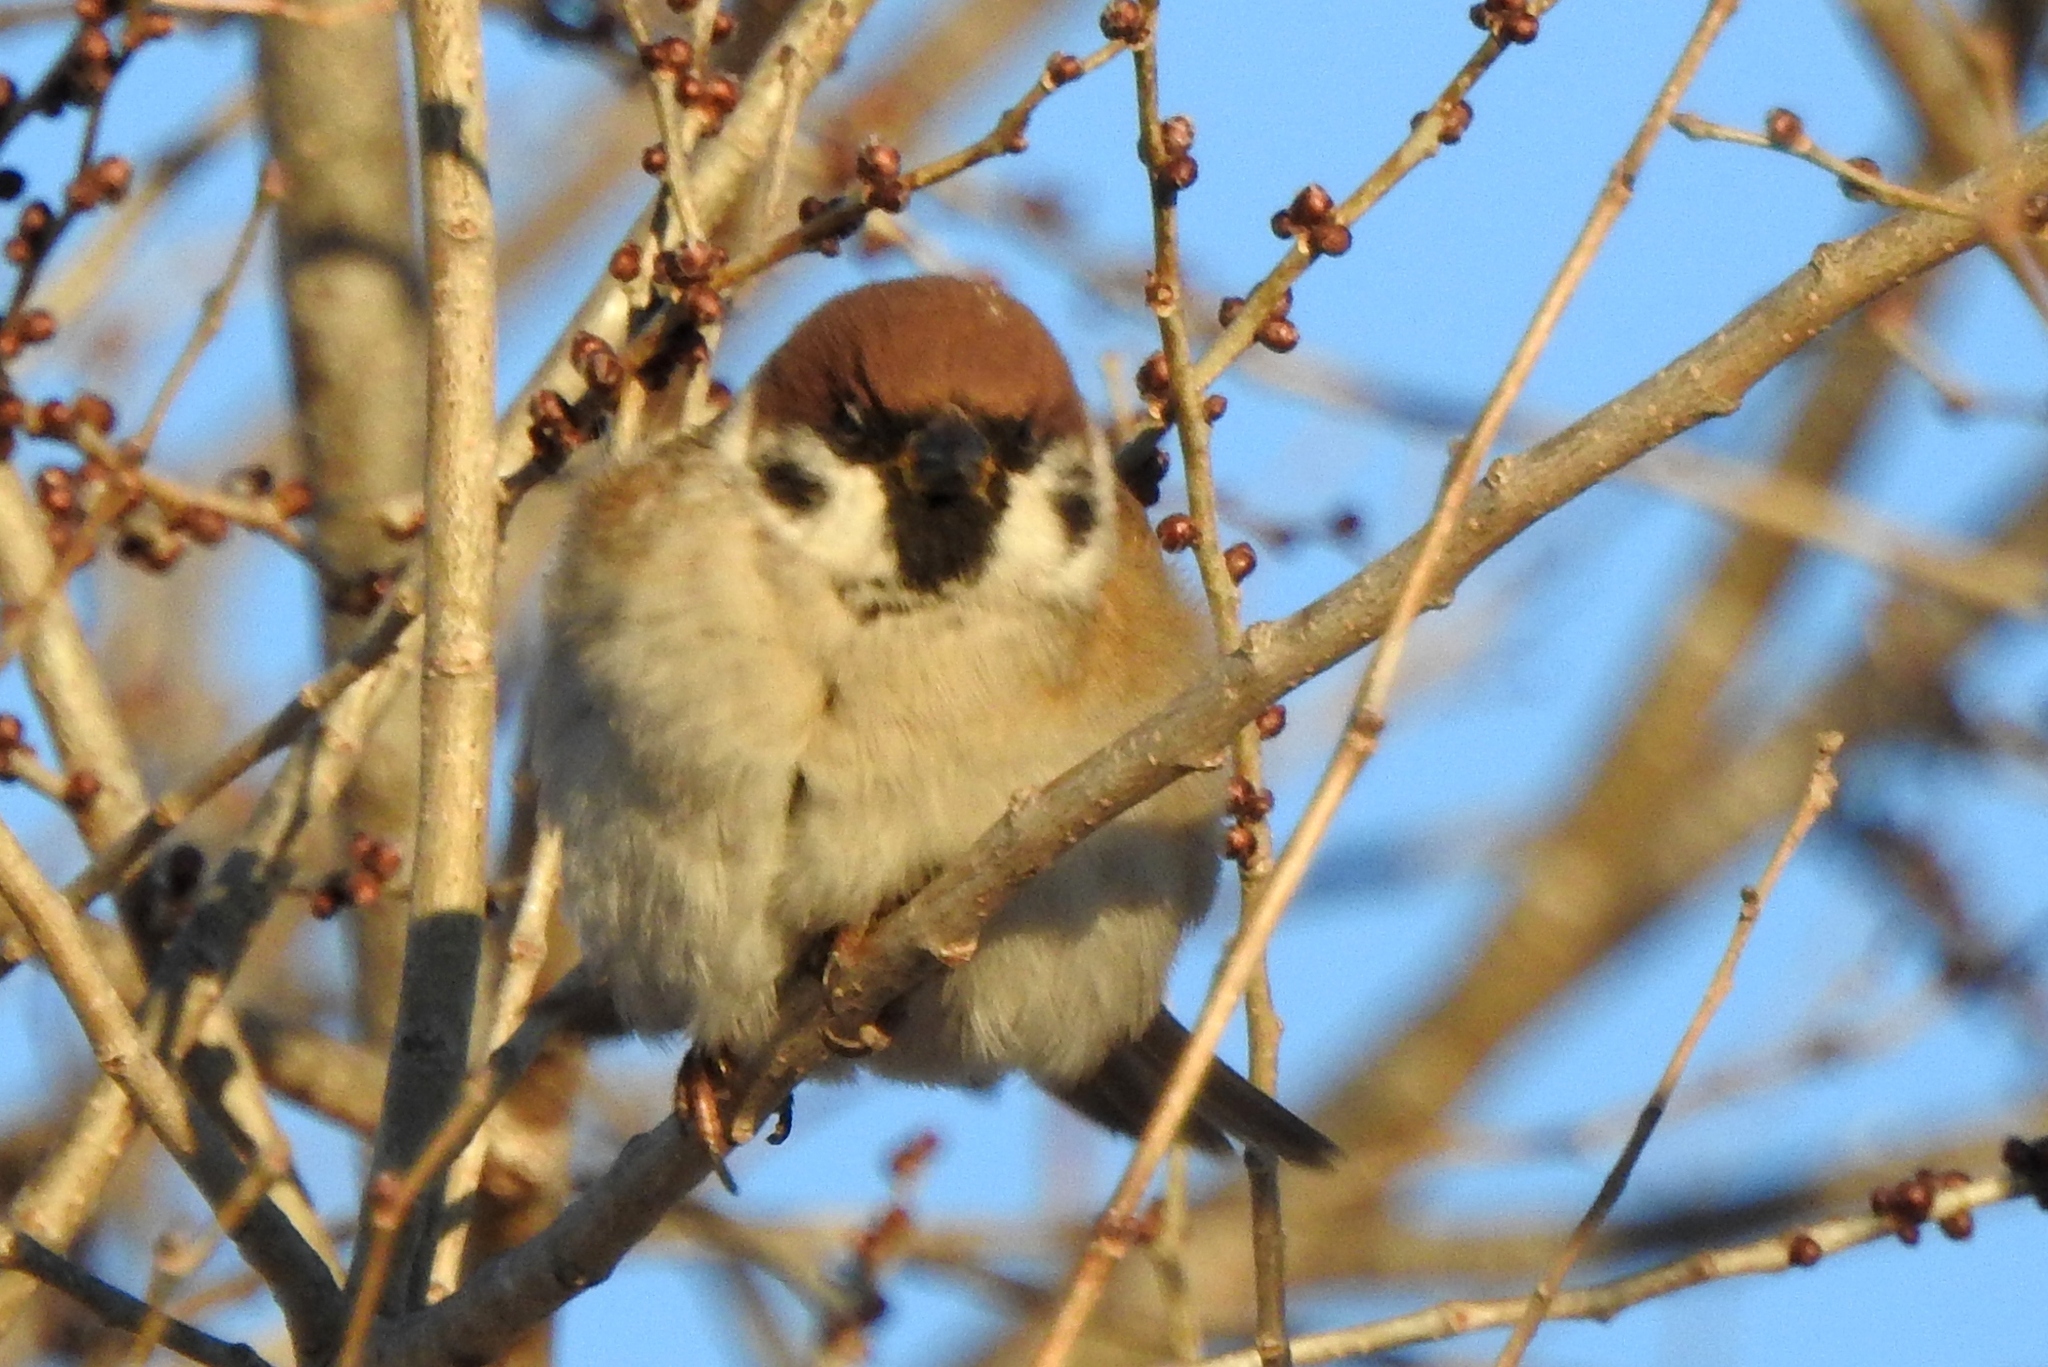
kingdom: Animalia
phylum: Chordata
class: Aves
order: Passeriformes
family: Passeridae
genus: Passer
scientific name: Passer montanus
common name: Eurasian tree sparrow
